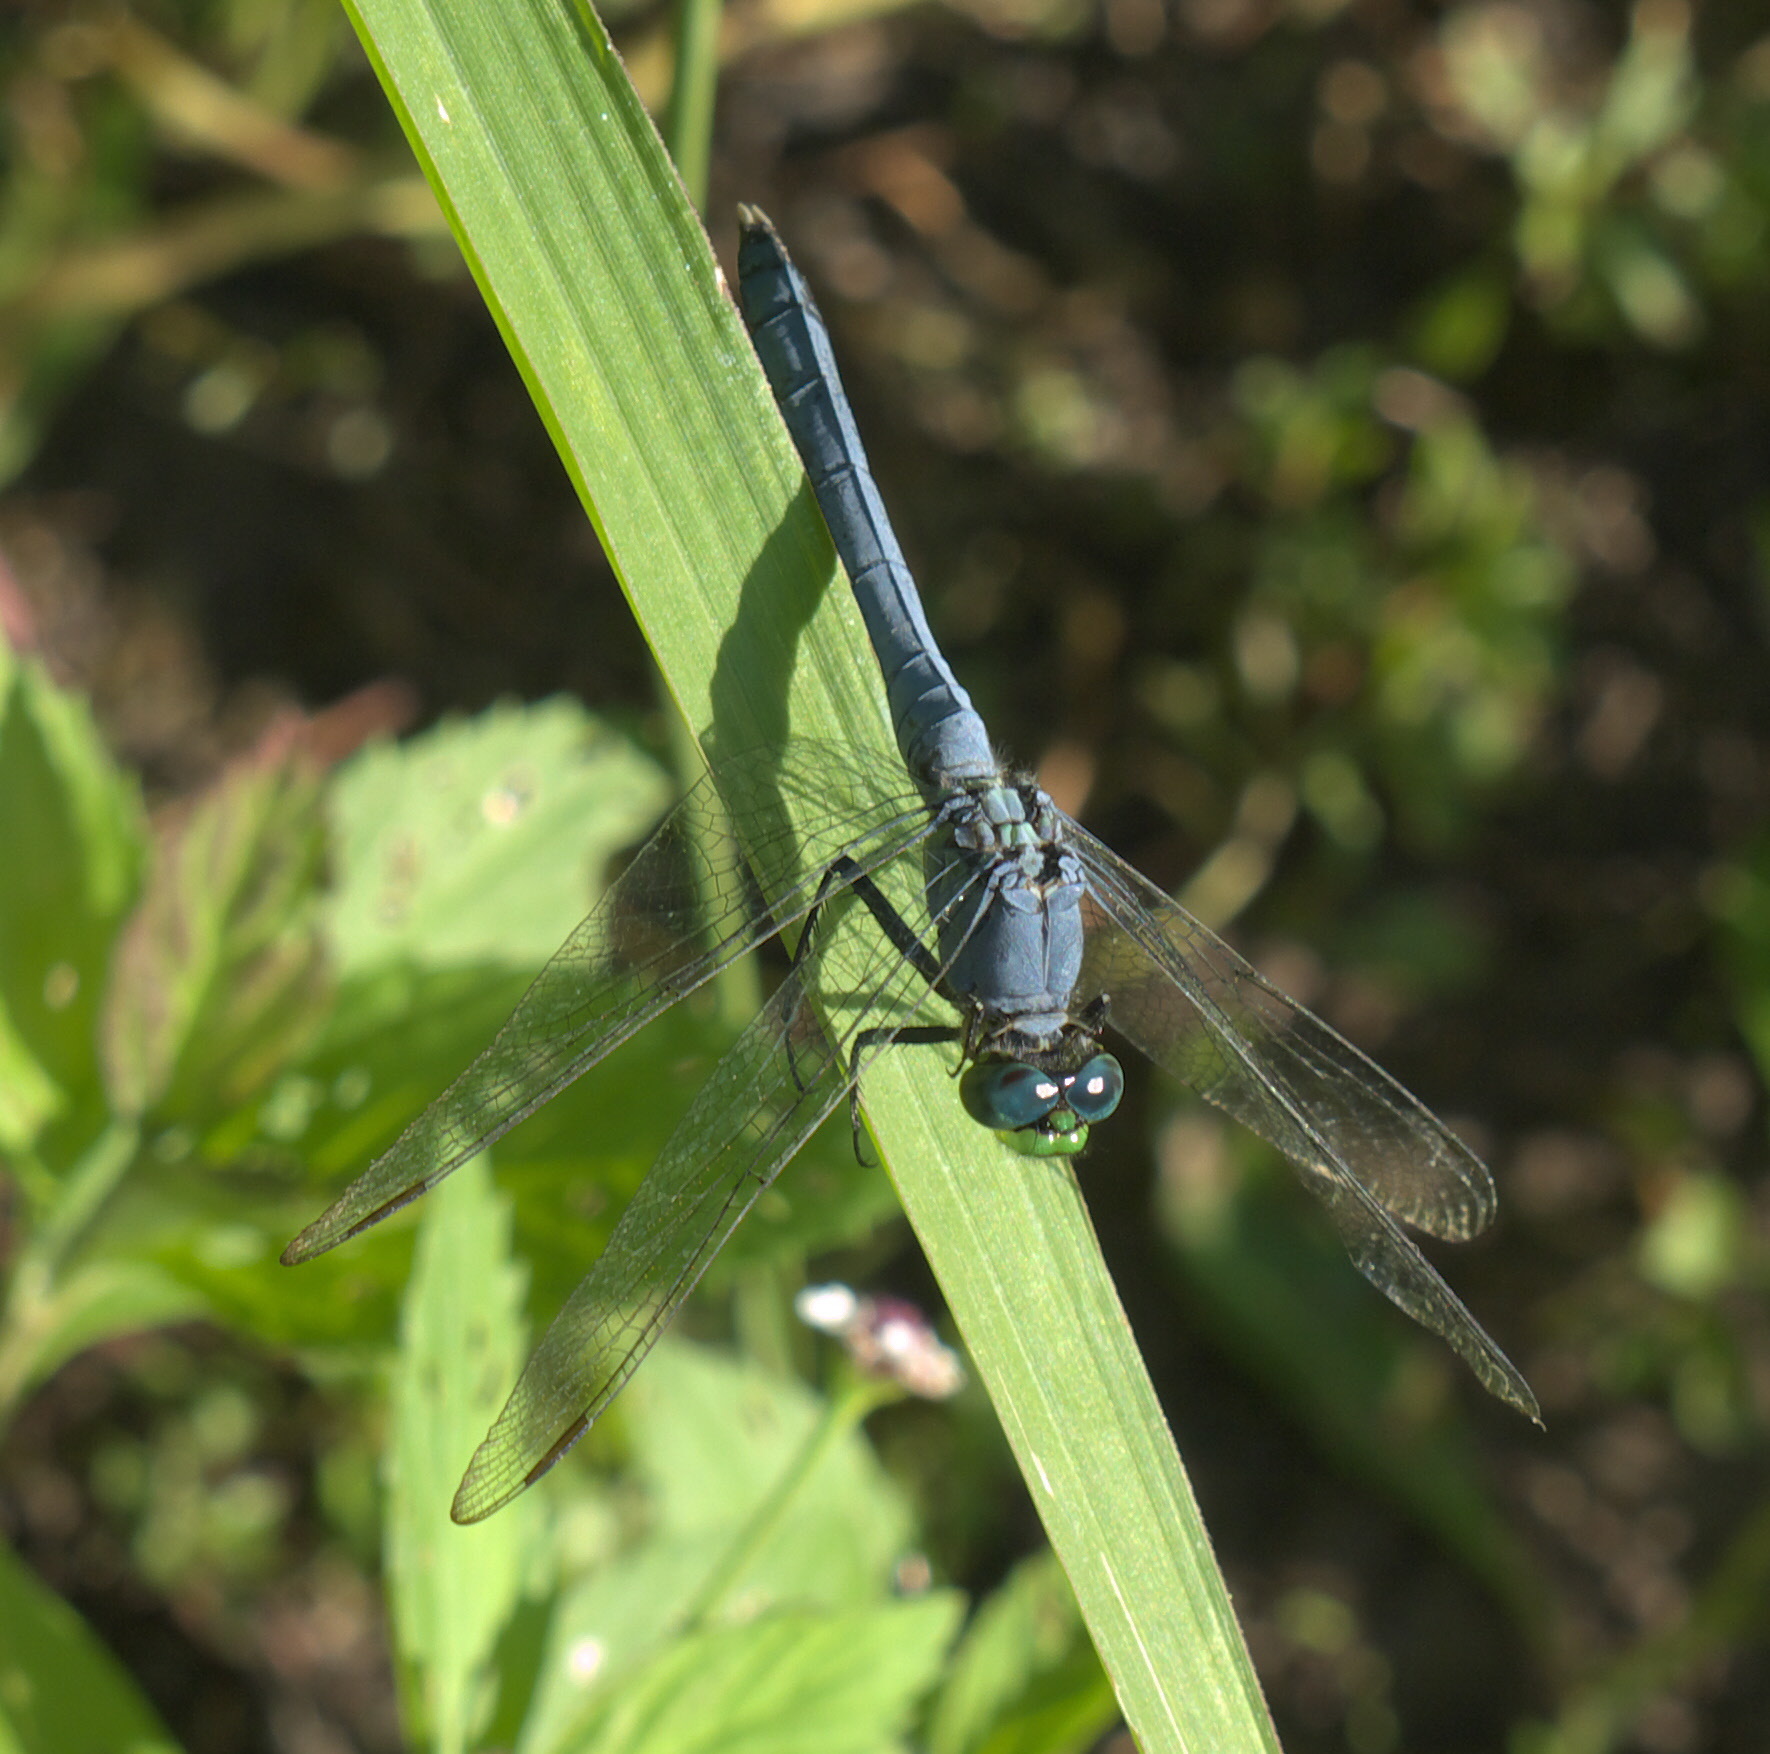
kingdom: Animalia
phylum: Arthropoda
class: Insecta
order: Odonata
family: Libellulidae
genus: Erythemis
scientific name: Erythemis simplicicollis
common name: Eastern pondhawk
